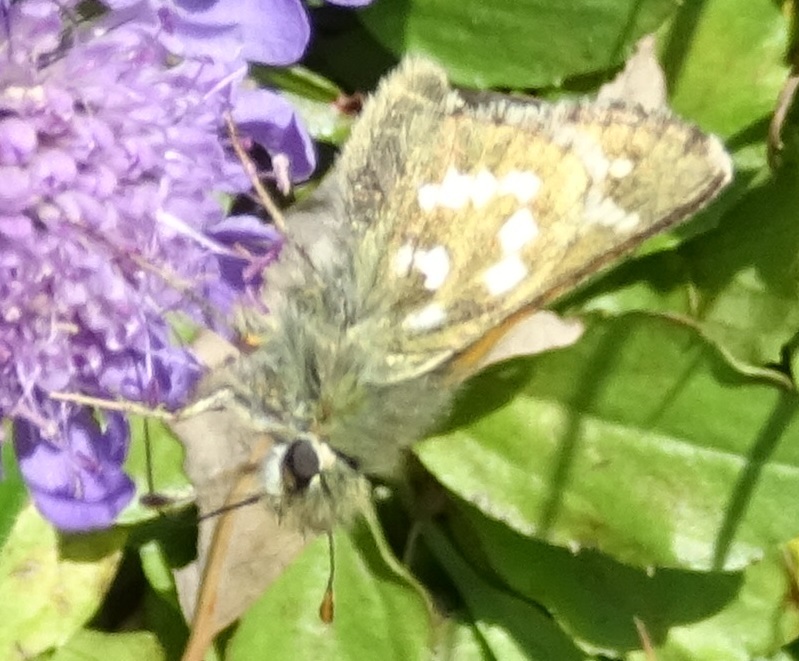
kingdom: Animalia
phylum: Arthropoda
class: Insecta
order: Lepidoptera
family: Hesperiidae
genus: Hesperia
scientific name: Hesperia comma
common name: Common branded skipper
